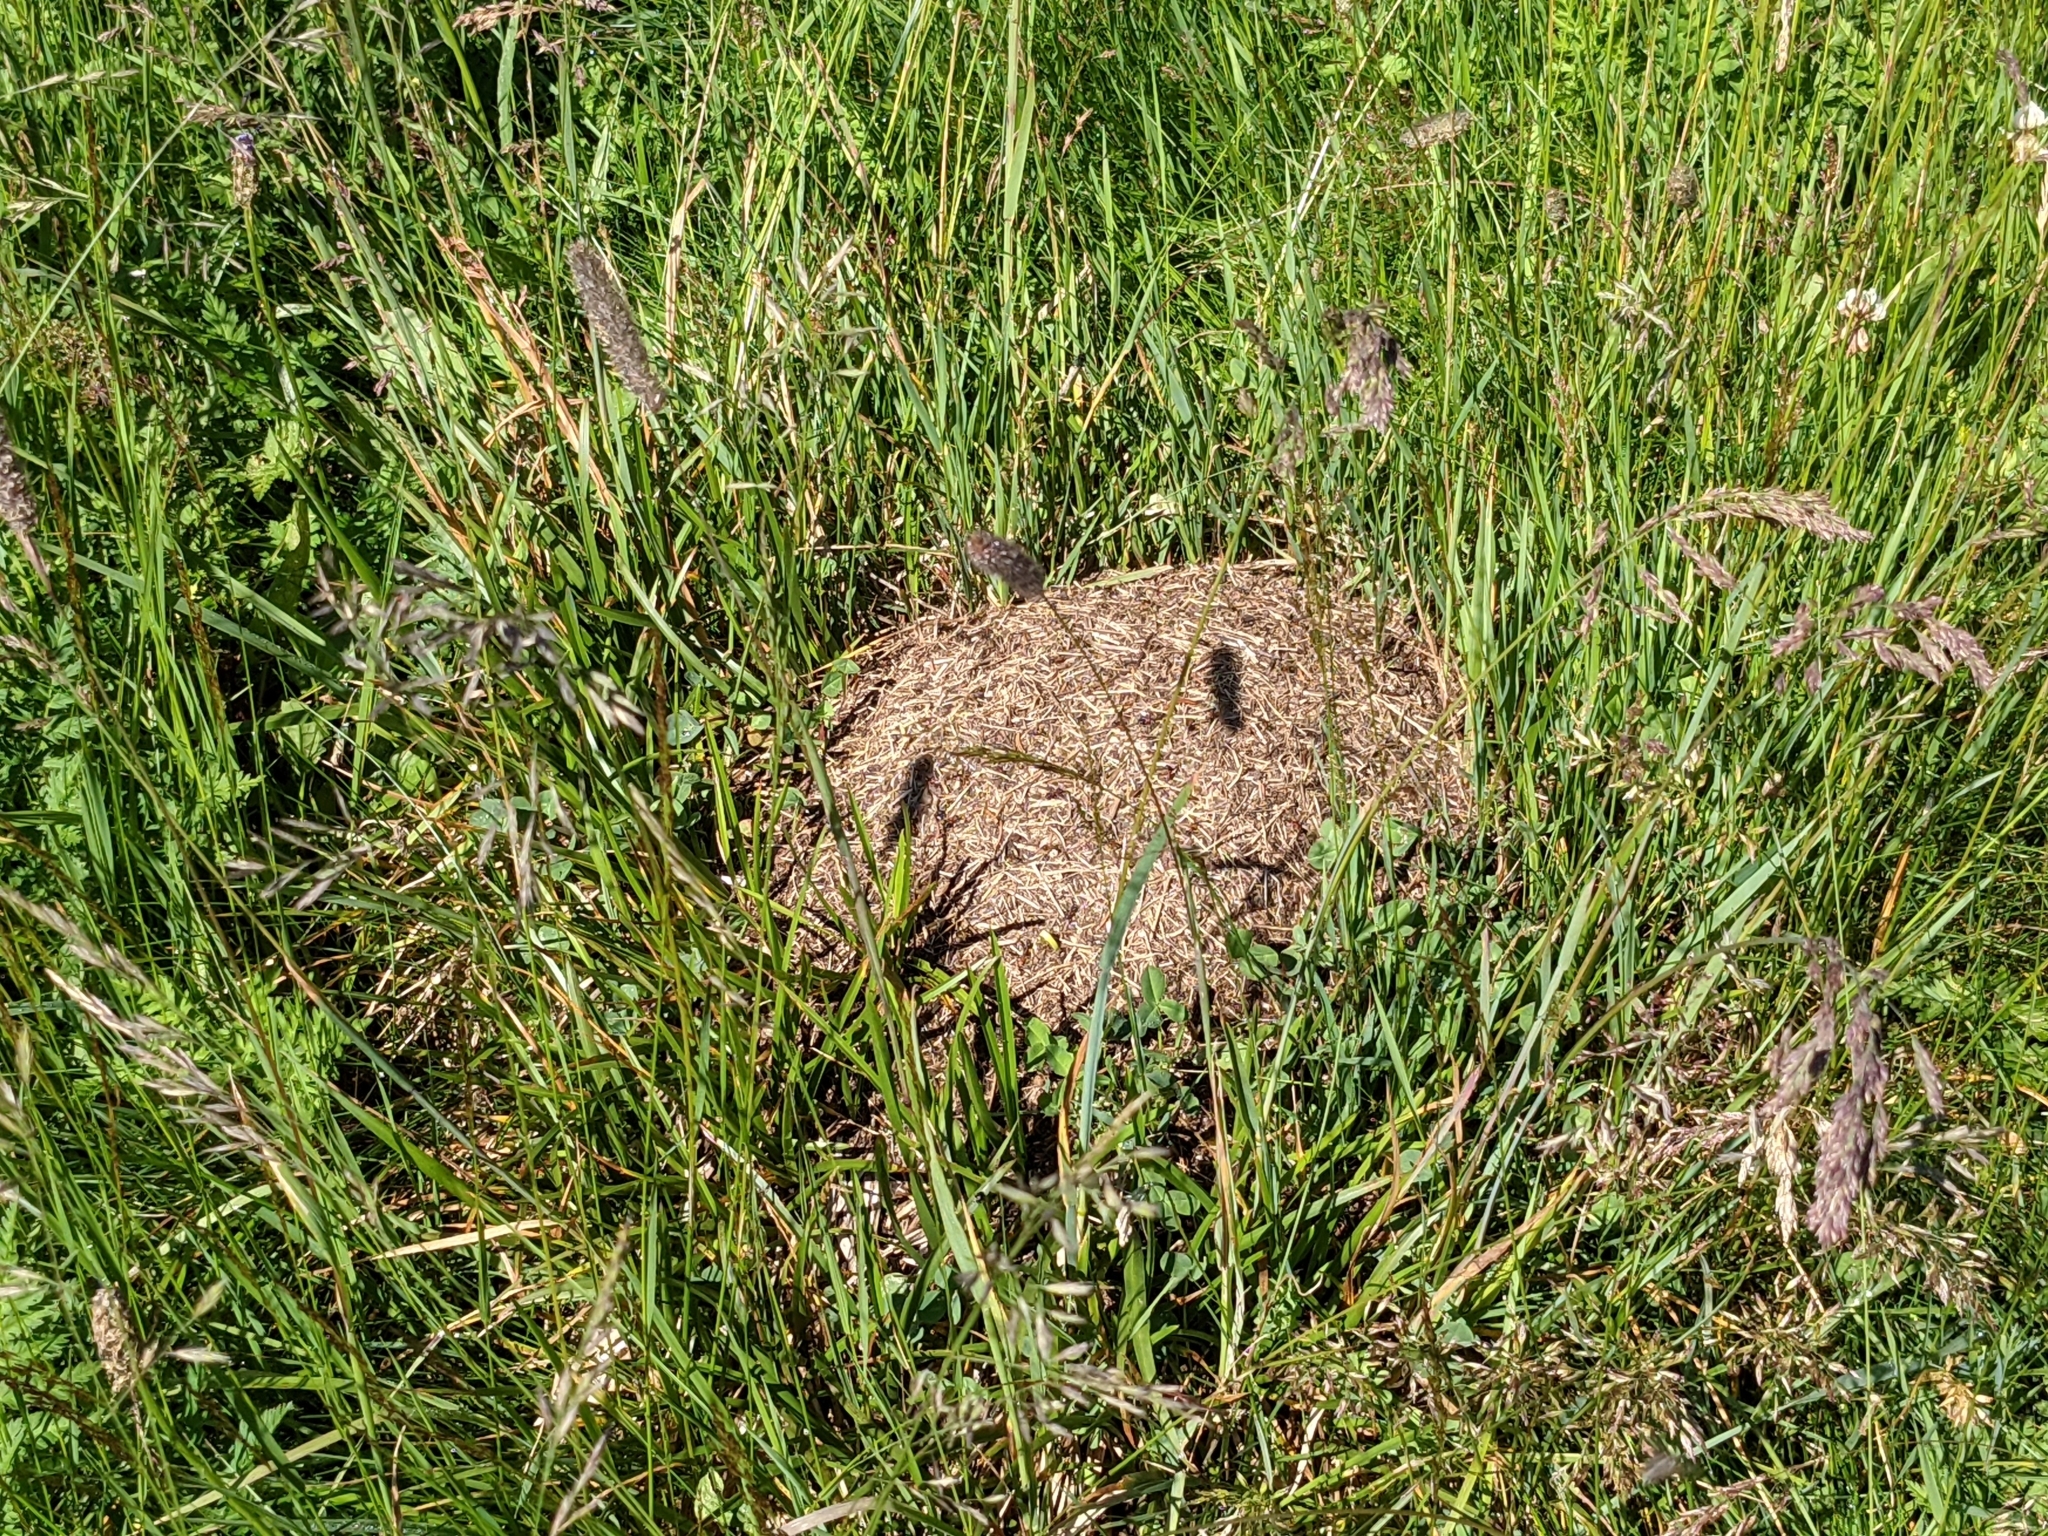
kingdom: Animalia
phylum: Arthropoda
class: Insecta
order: Hymenoptera
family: Formicidae
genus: Formica
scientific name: Formica pressilabris
